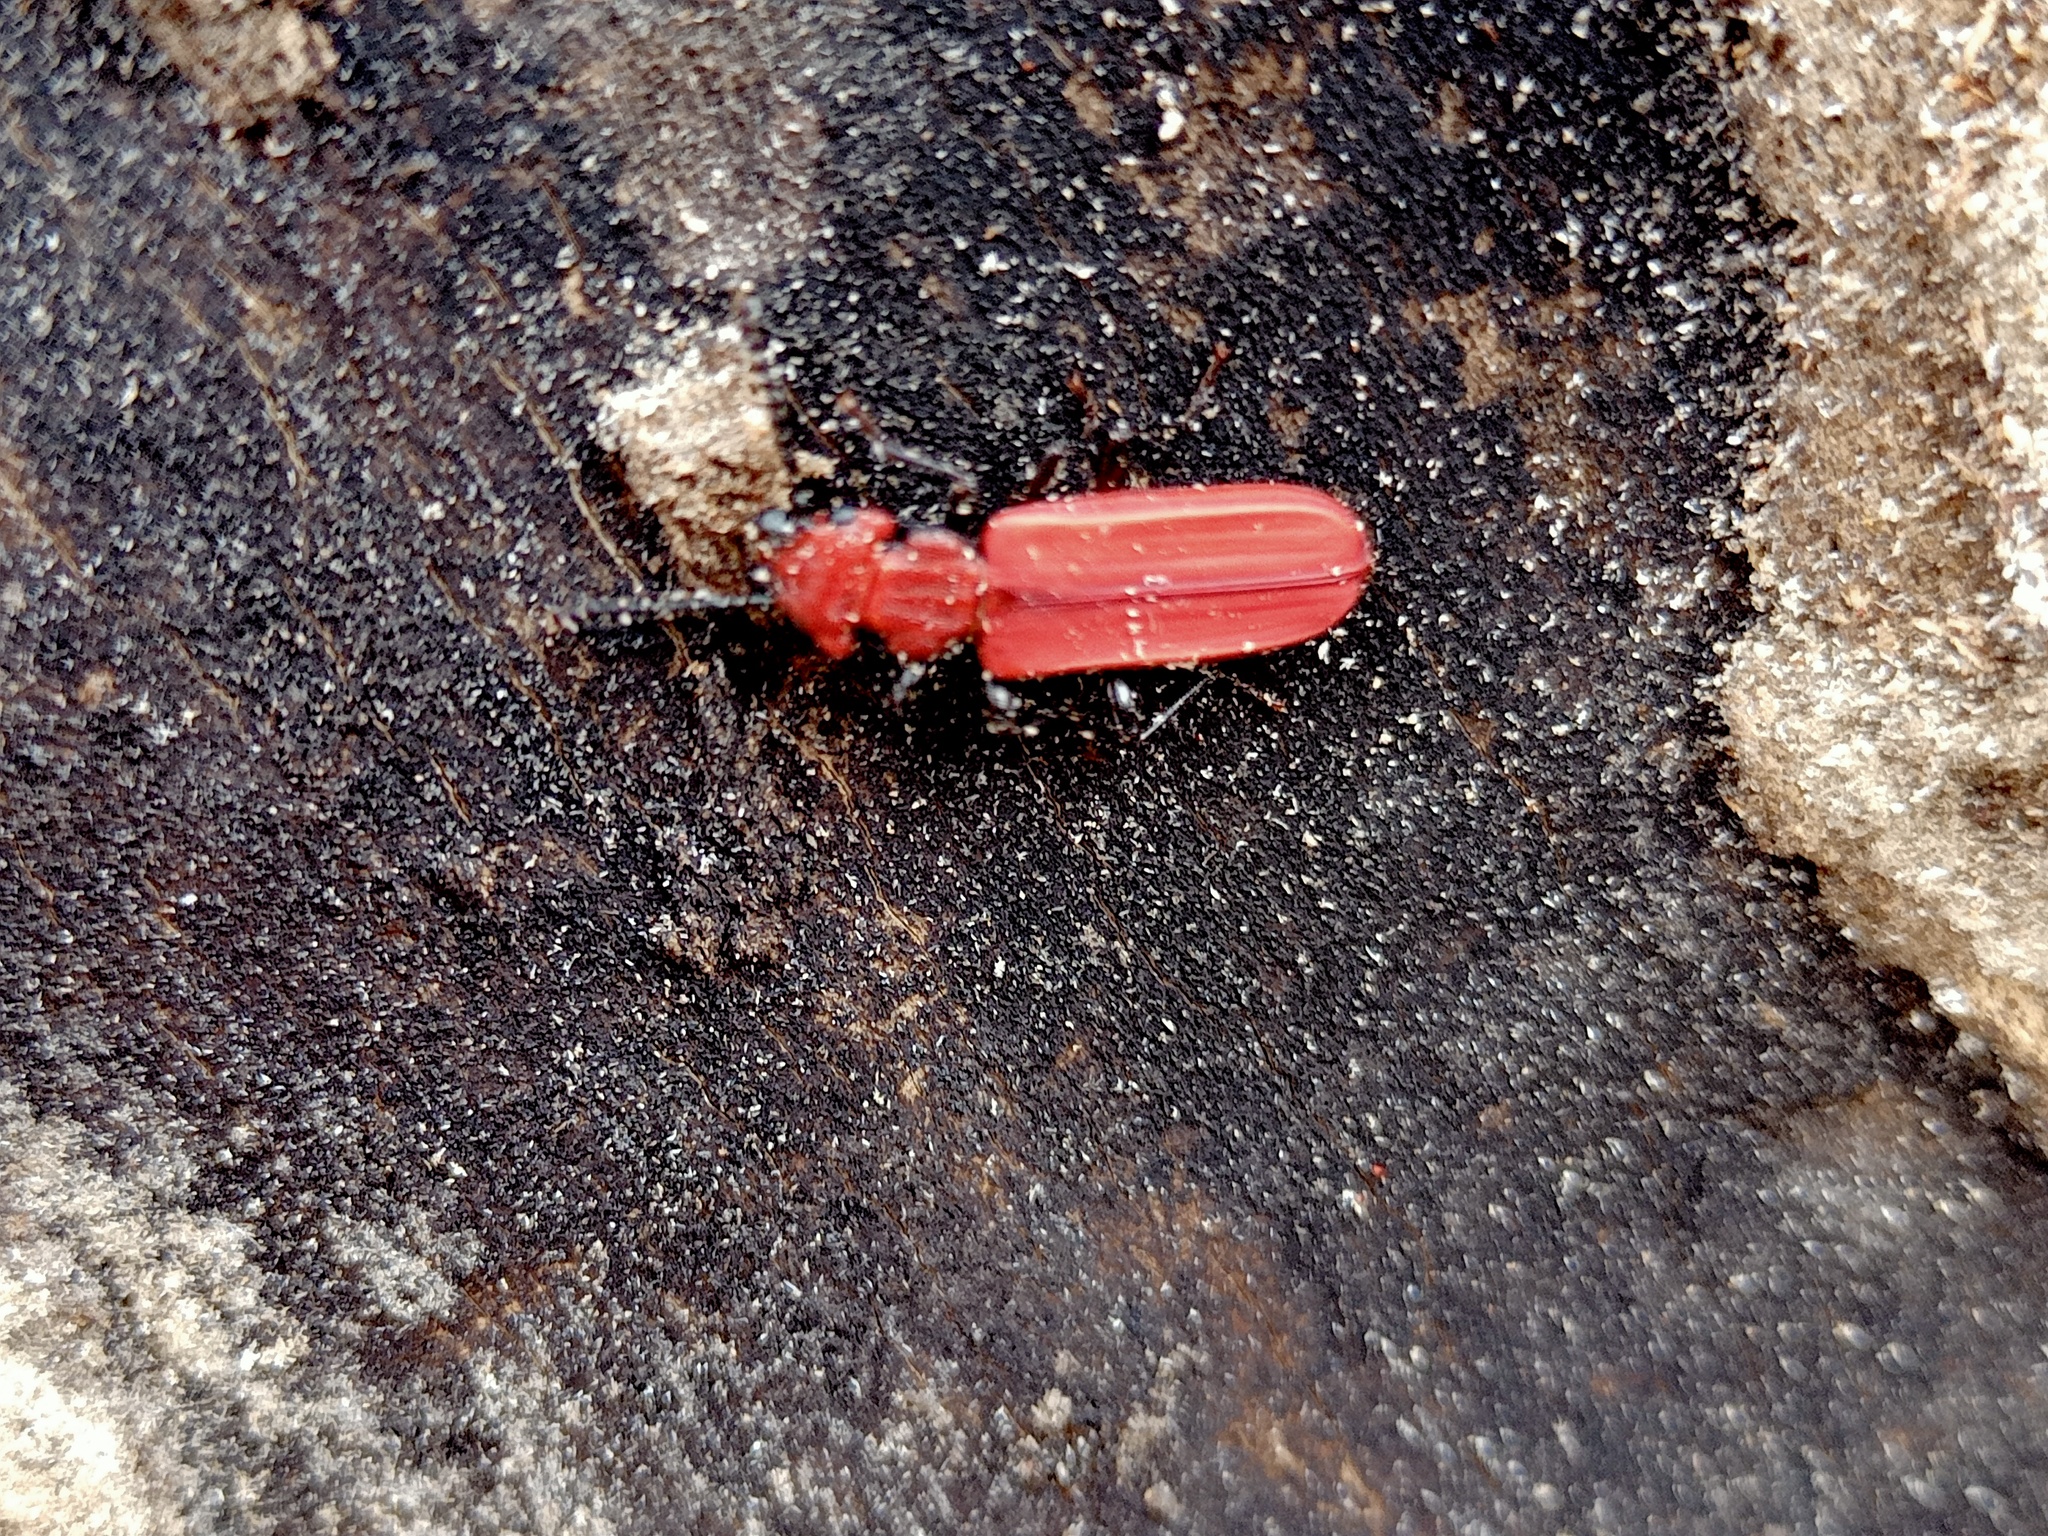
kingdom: Animalia
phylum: Arthropoda
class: Insecta
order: Coleoptera
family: Cucujidae
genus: Cucujus
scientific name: Cucujus cinnaberinus
